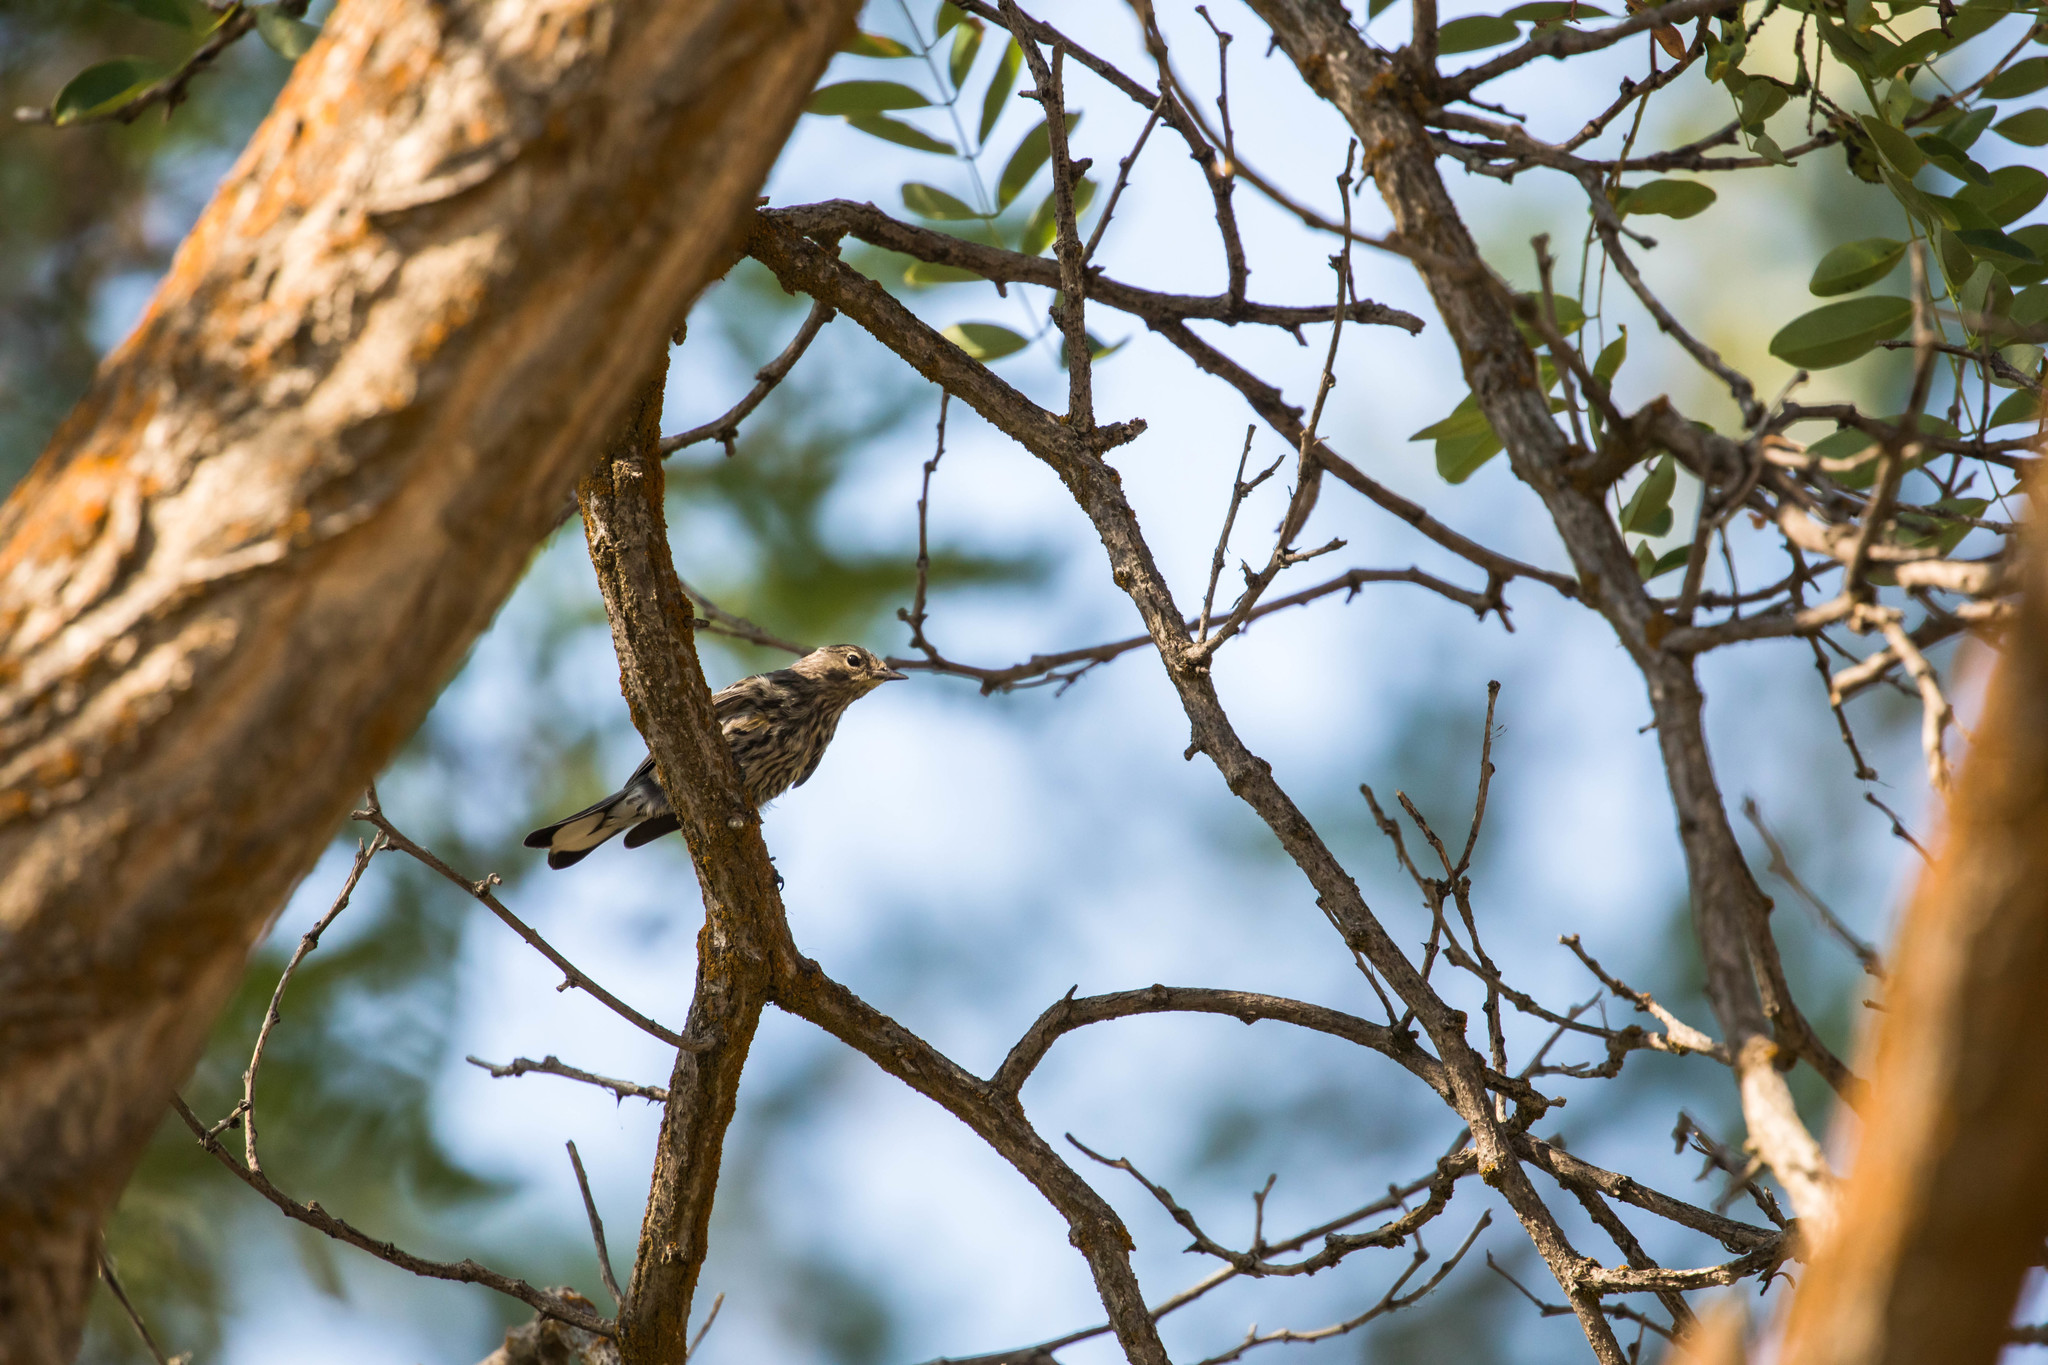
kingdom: Animalia
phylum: Chordata
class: Aves
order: Passeriformes
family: Parulidae
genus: Setophaga
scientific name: Setophaga coronata
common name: Myrtle warbler
